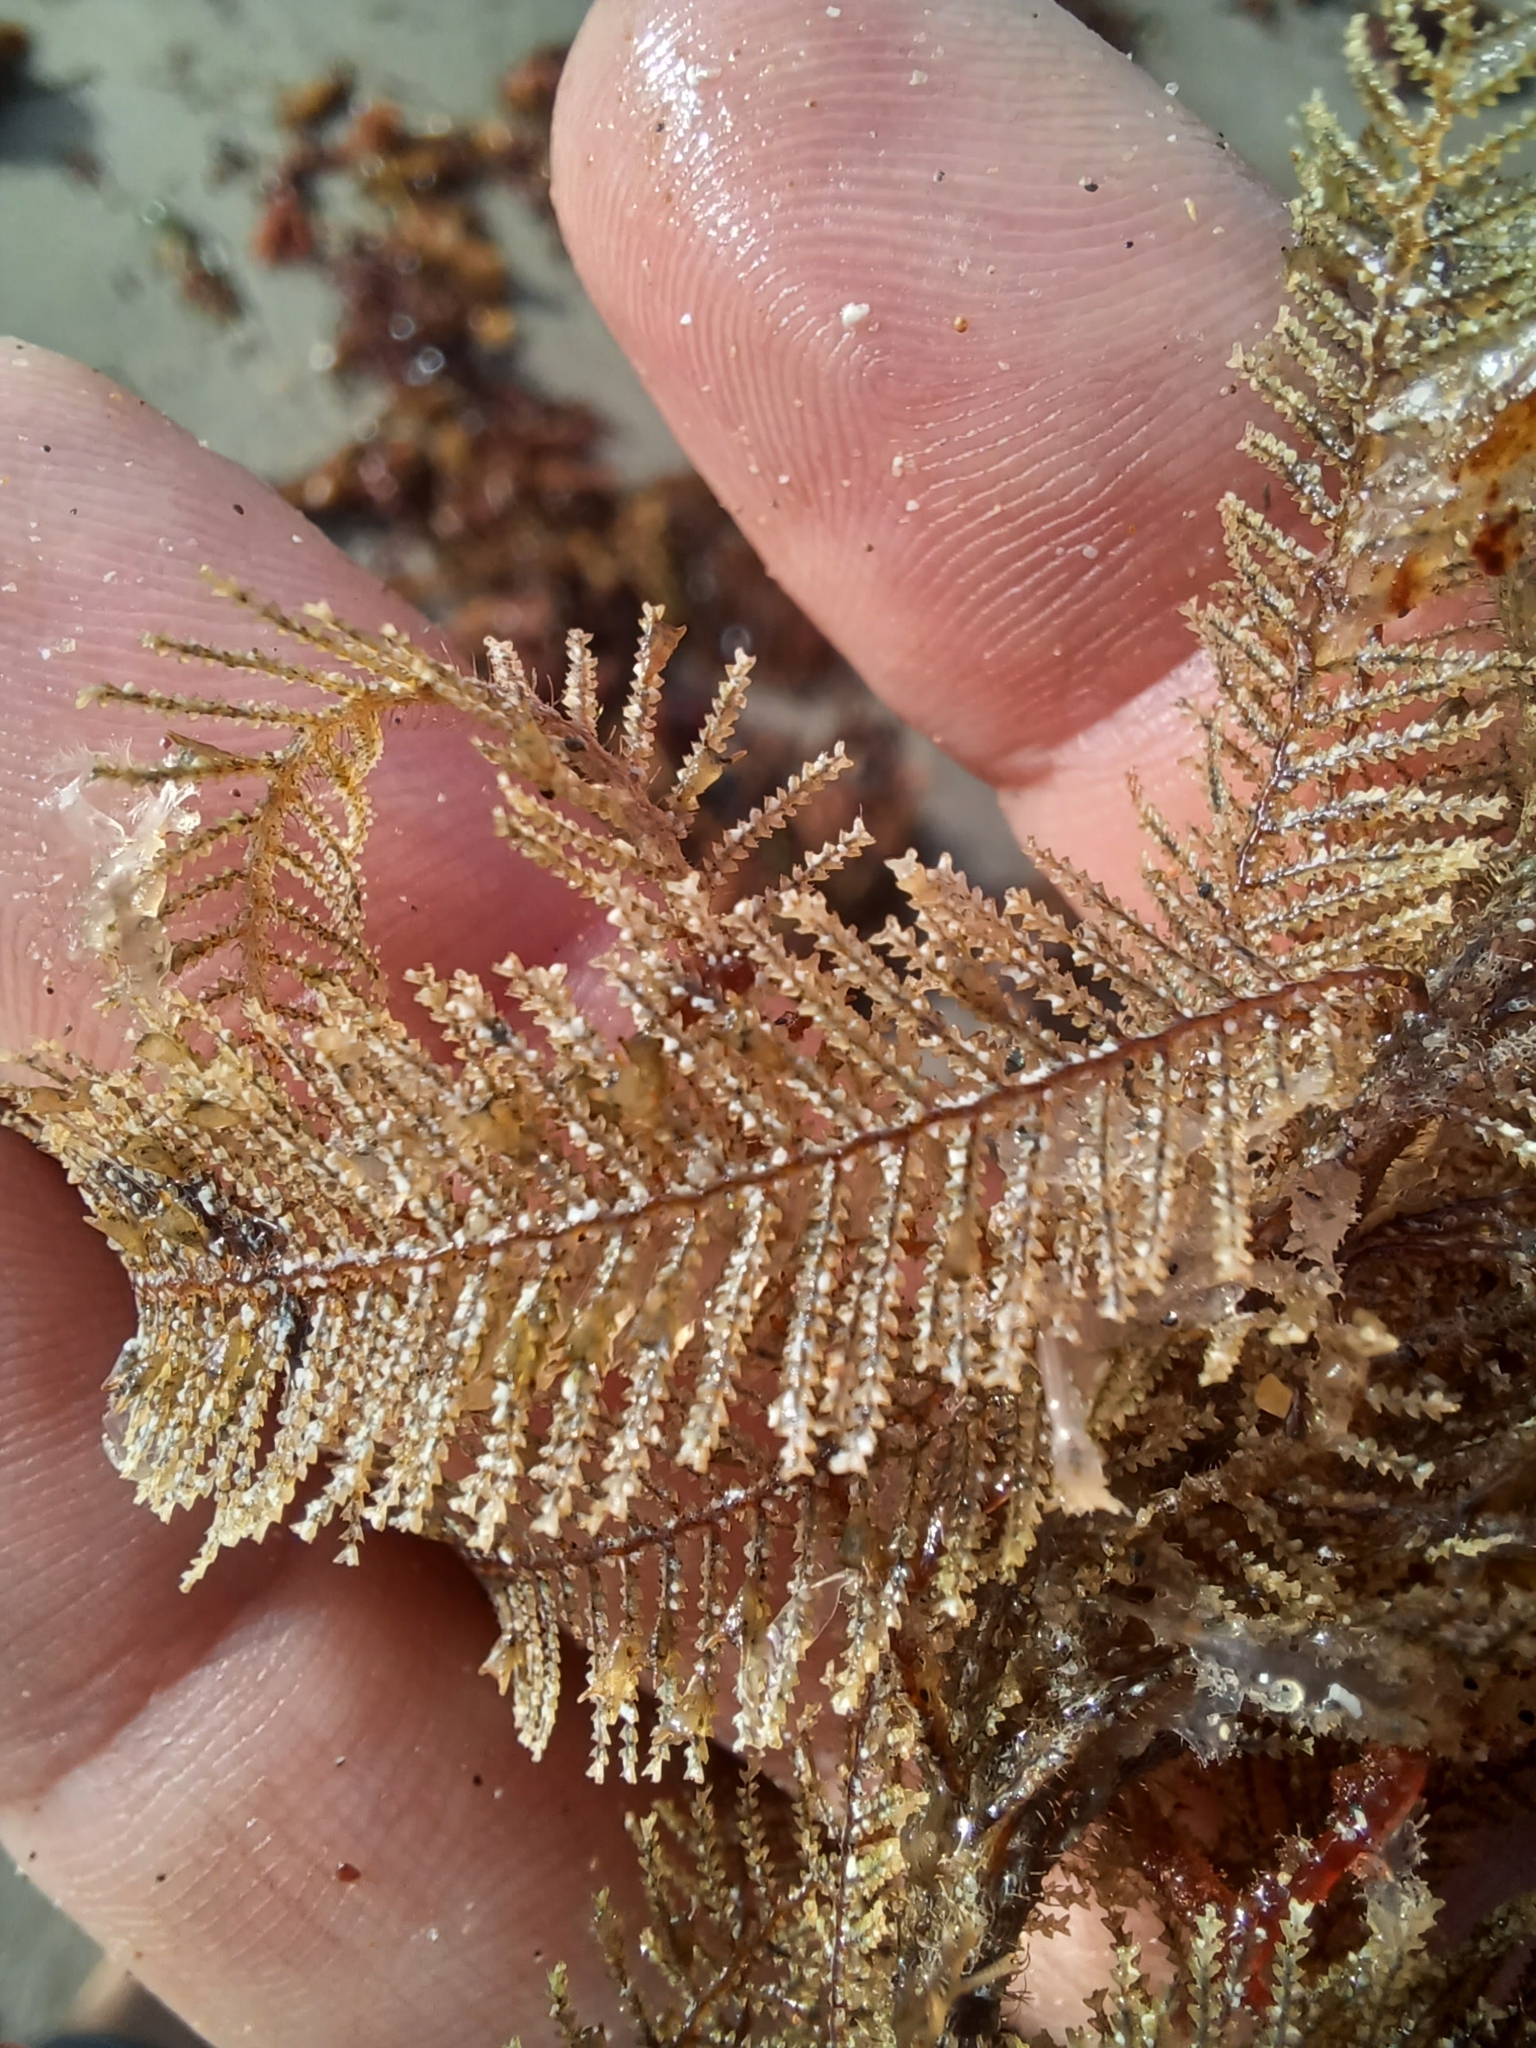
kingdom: Animalia
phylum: Cnidaria
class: Hydrozoa
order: Leptothecata
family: Sertulariidae
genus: Stereotheca
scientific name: Stereotheca elongata
